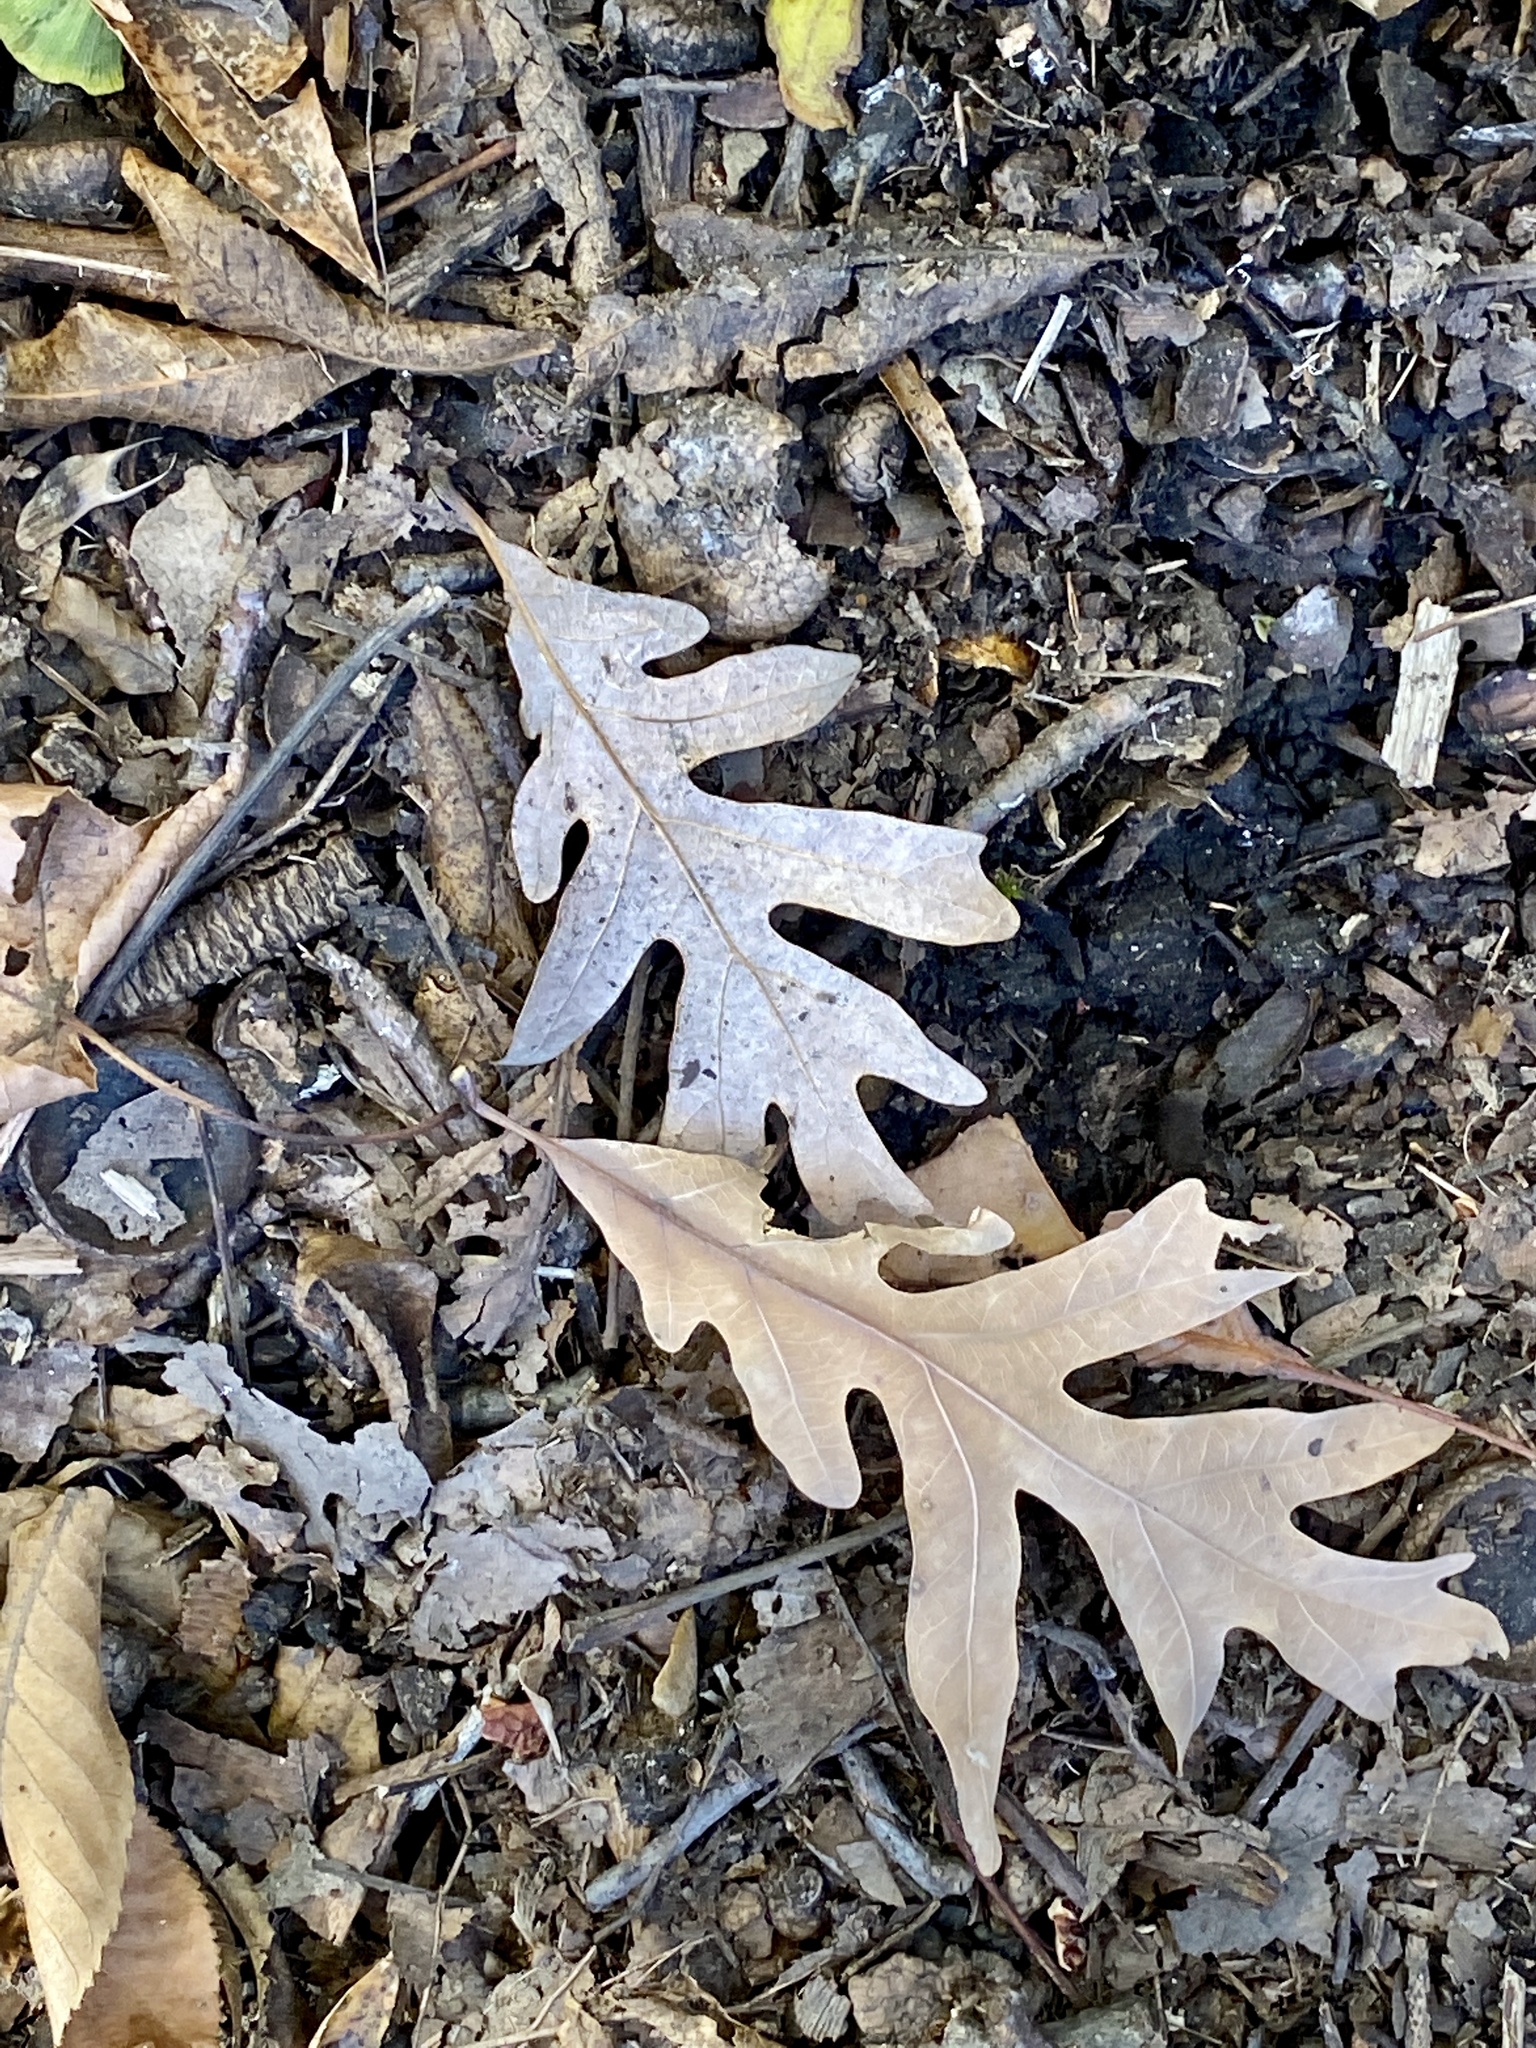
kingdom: Plantae
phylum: Tracheophyta
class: Magnoliopsida
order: Fagales
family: Fagaceae
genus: Quercus
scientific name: Quercus alba
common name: White oak
